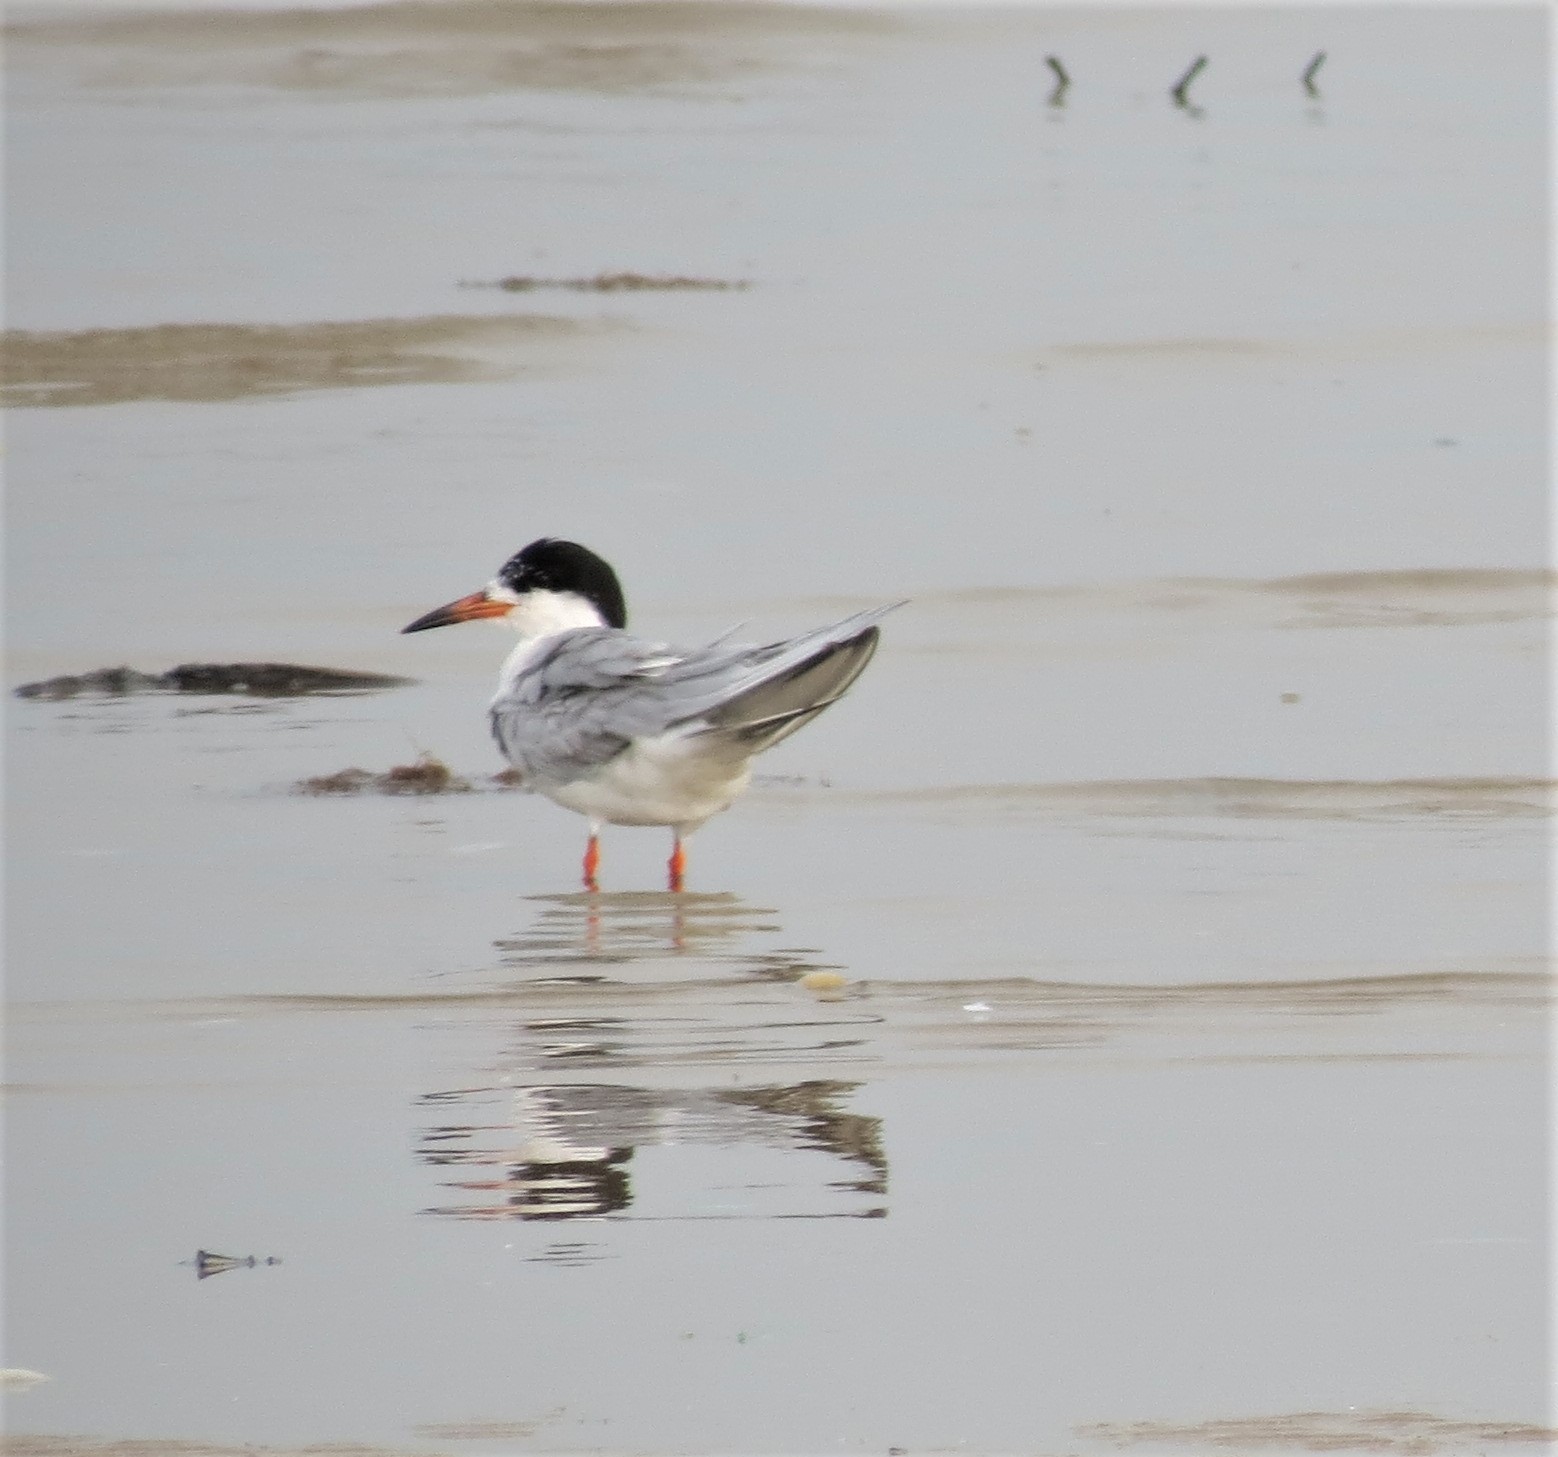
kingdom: Animalia
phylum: Chordata
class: Aves
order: Charadriiformes
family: Laridae
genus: Sterna
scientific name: Sterna forsteri
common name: Forster's tern
